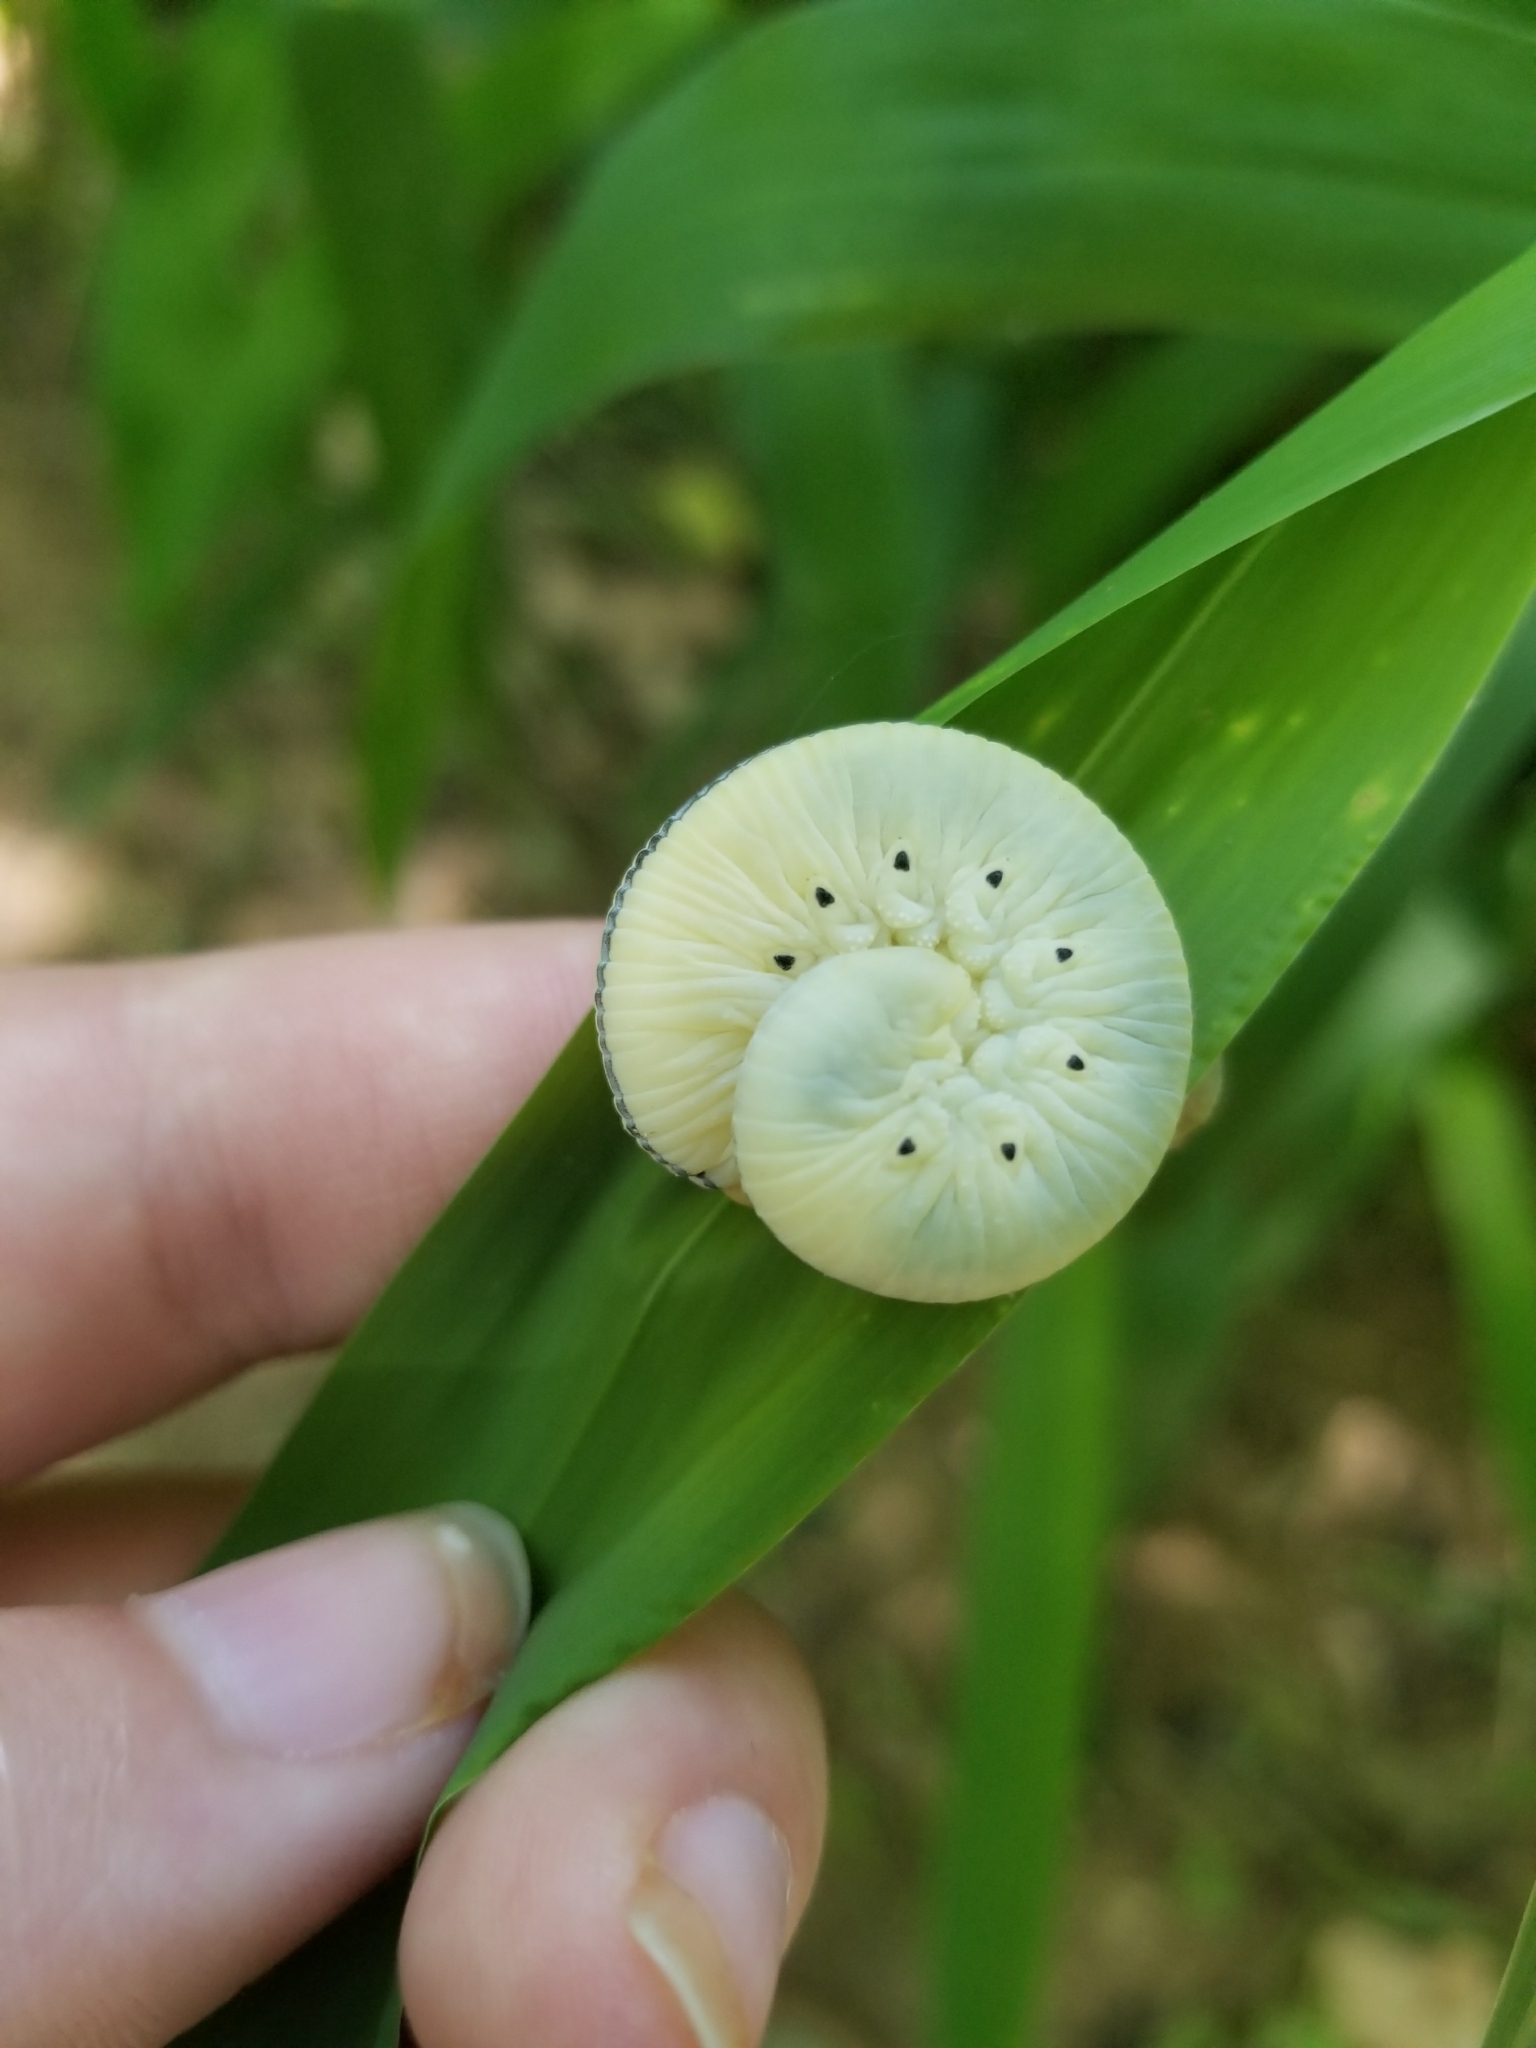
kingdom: Animalia
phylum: Arthropoda
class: Insecta
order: Hymenoptera
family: Cimbicidae
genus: Cimbex
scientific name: Cimbex americana
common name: Elm sawfly
